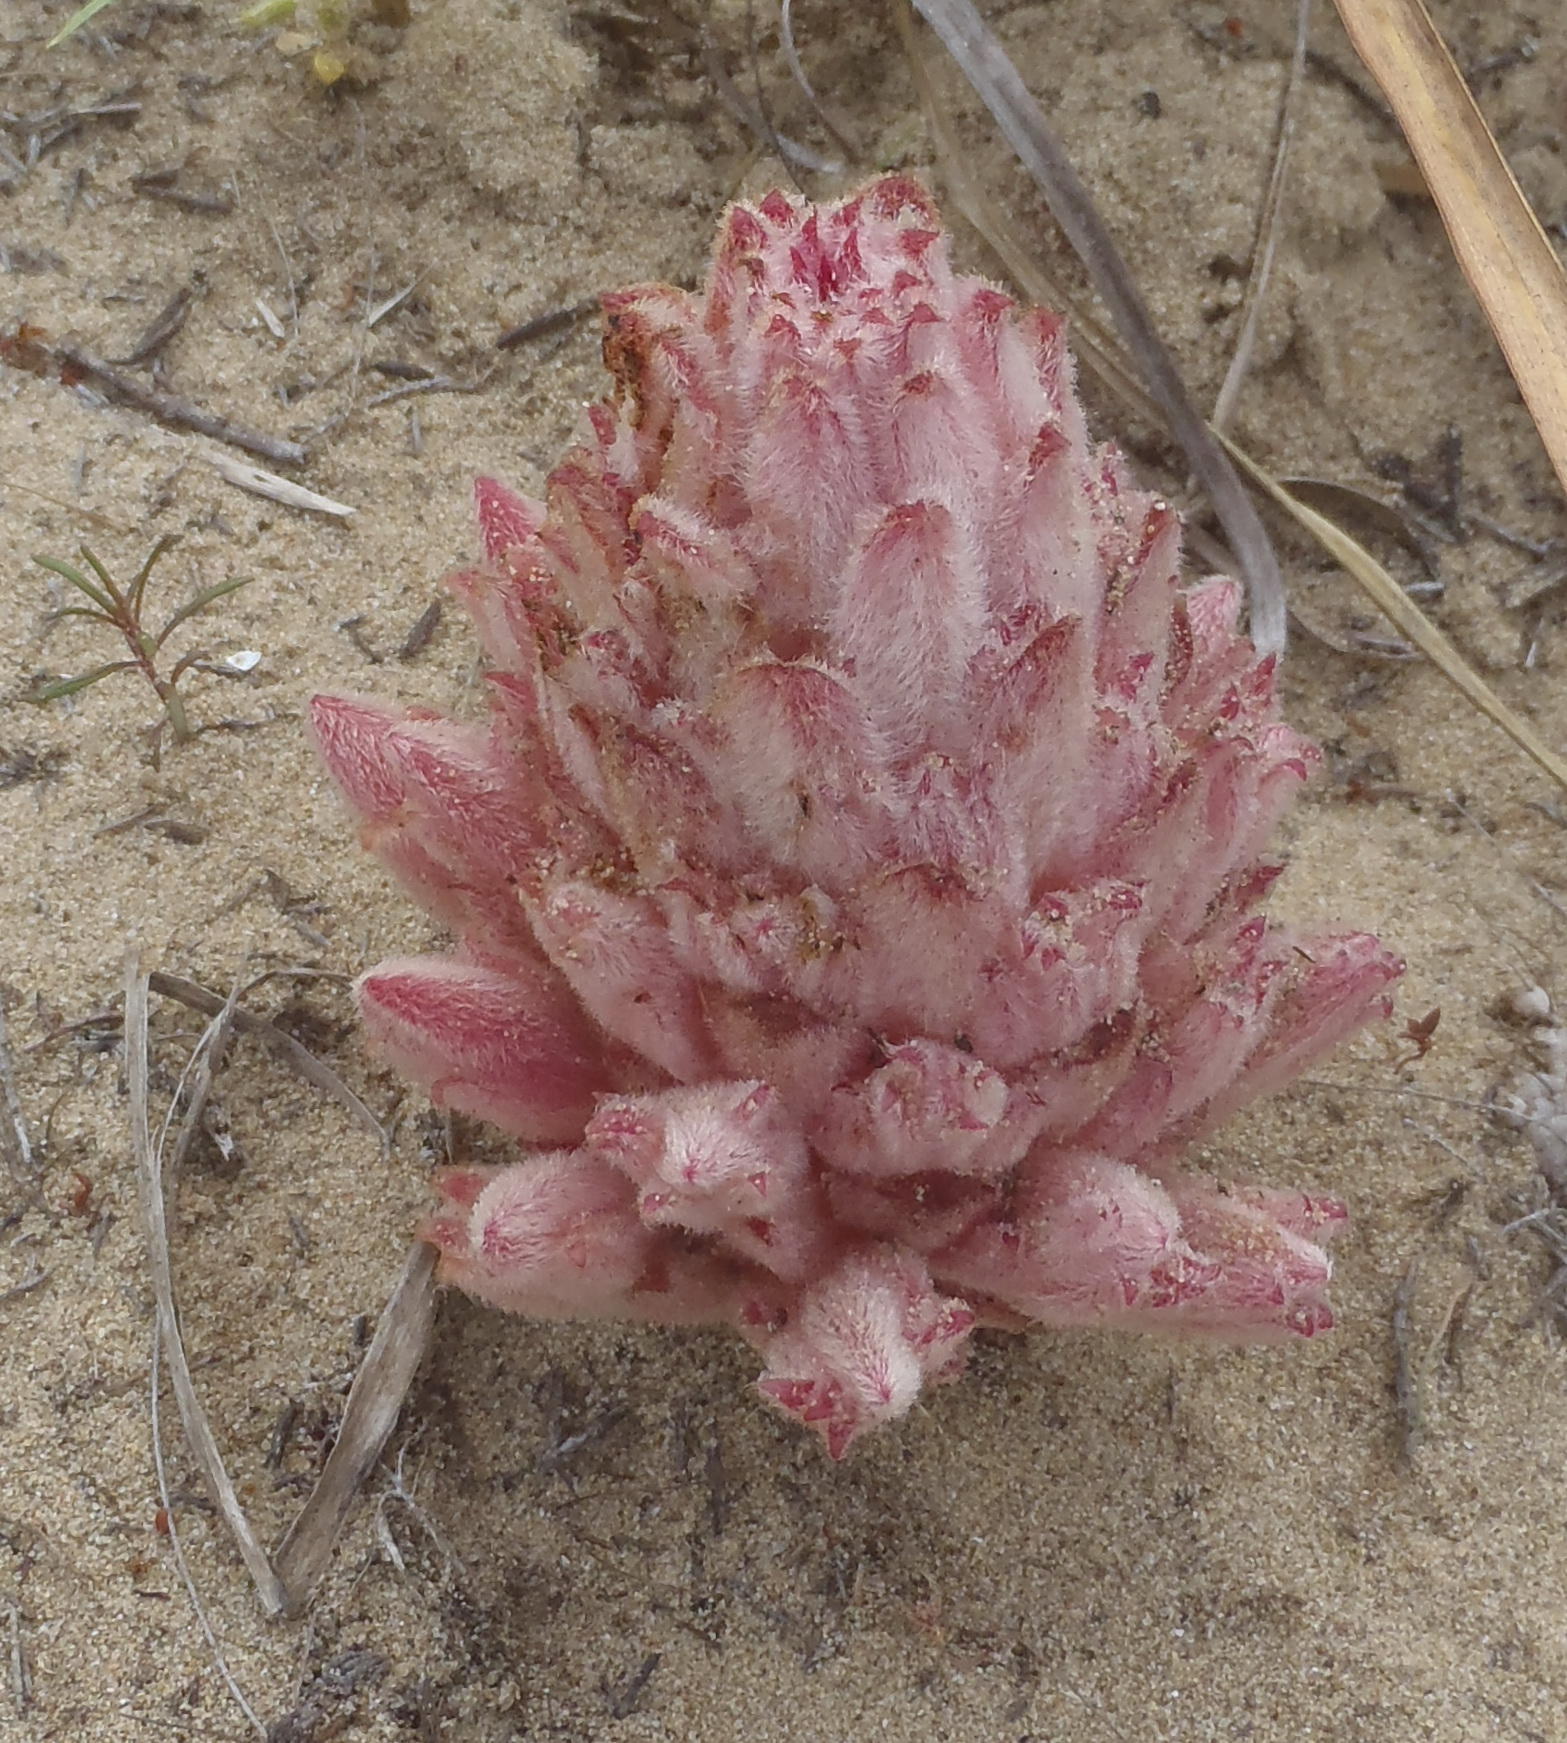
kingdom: Plantae
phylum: Tracheophyta
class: Magnoliopsida
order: Lamiales
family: Orobanchaceae
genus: Hyobanche
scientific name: Hyobanche robusta
